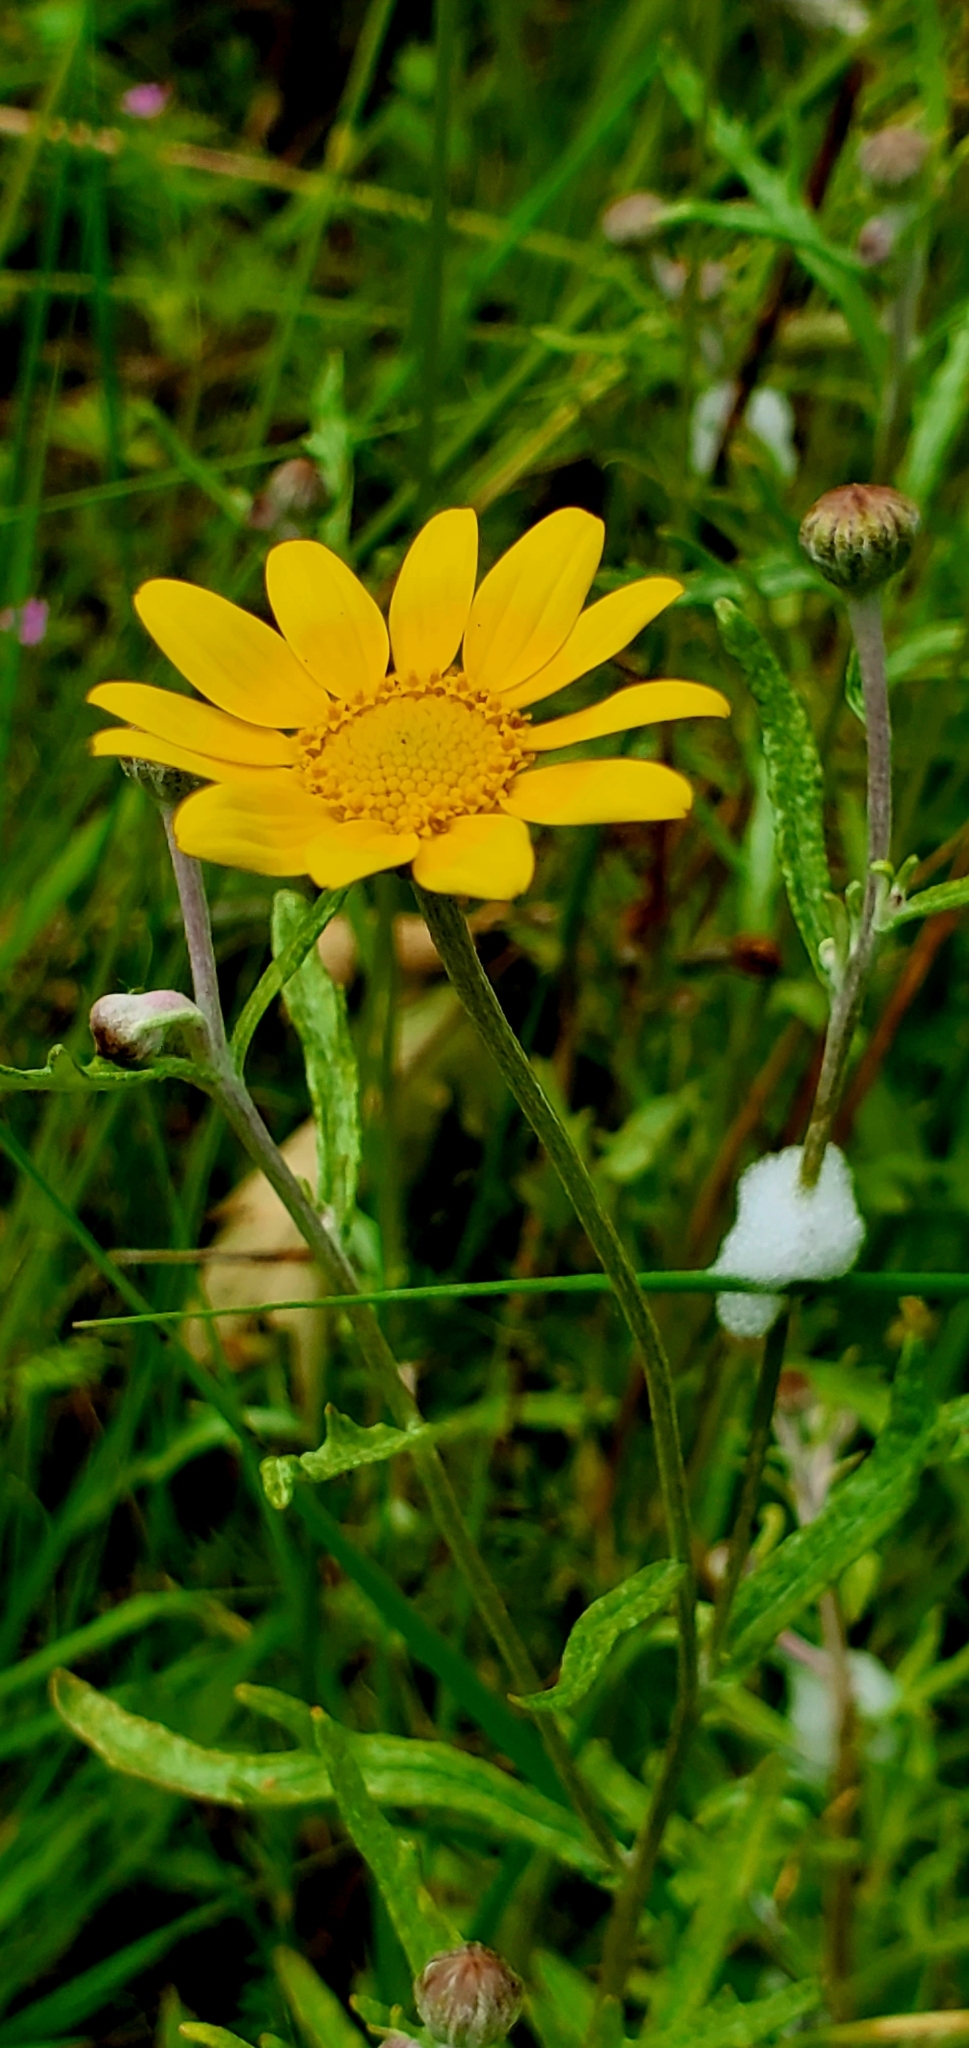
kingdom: Plantae
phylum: Tracheophyta
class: Magnoliopsida
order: Asterales
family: Asteraceae
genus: Eriophyllum
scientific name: Eriophyllum lanatum
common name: Common woolly-sunflower
